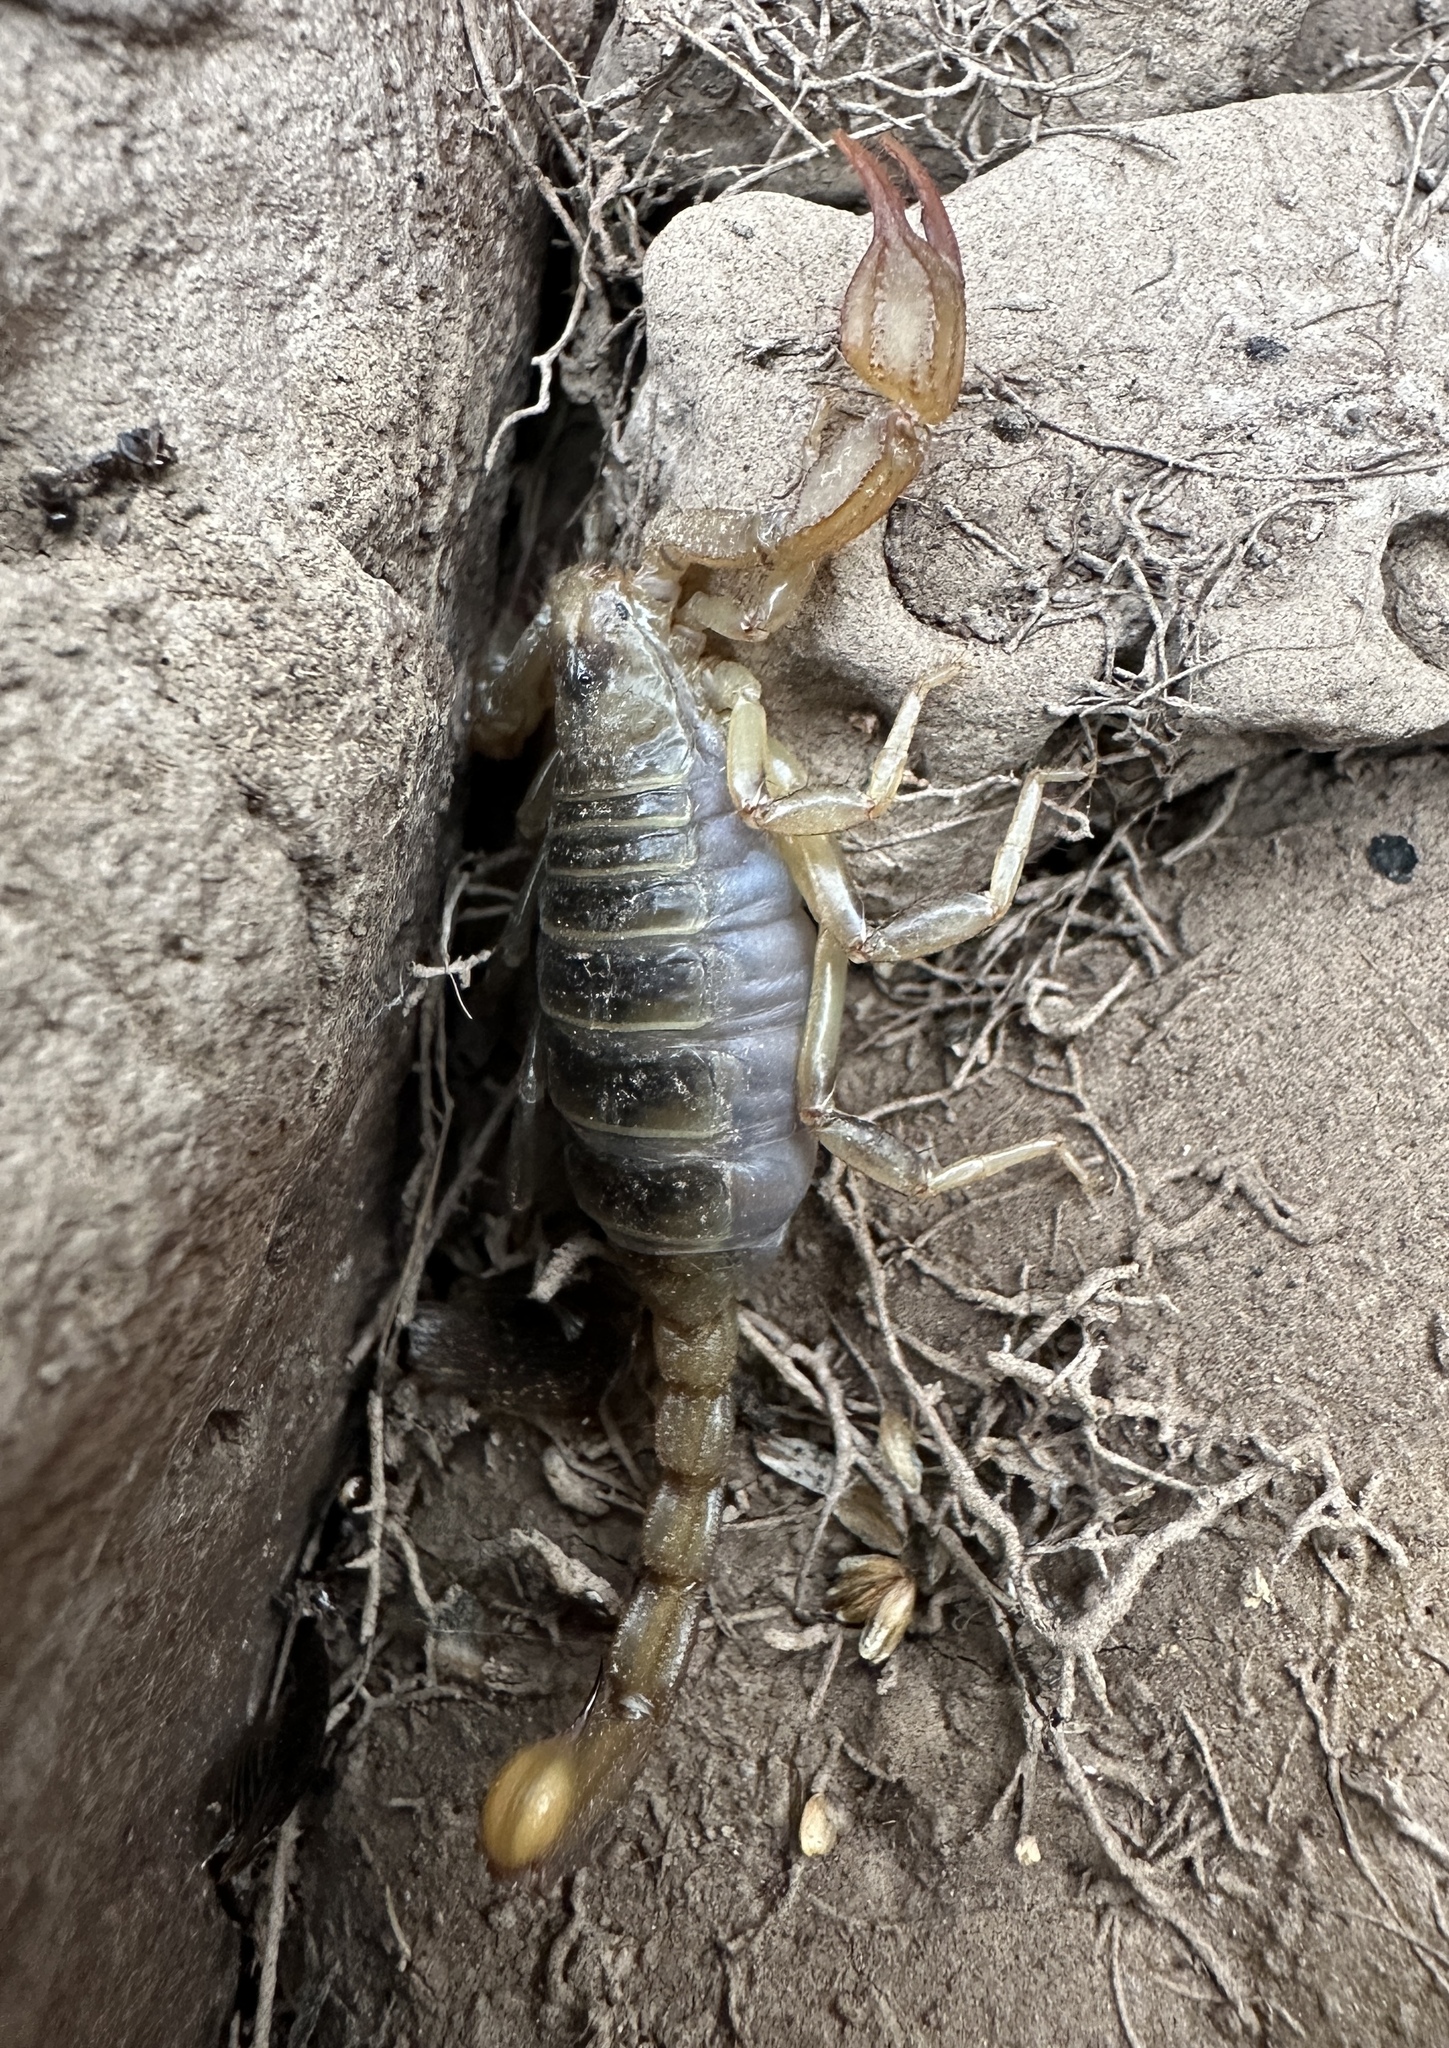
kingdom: Animalia
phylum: Arthropoda
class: Arachnida
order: Scorpiones
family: Vaejovidae
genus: Paruroctonus
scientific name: Paruroctonus boreus
